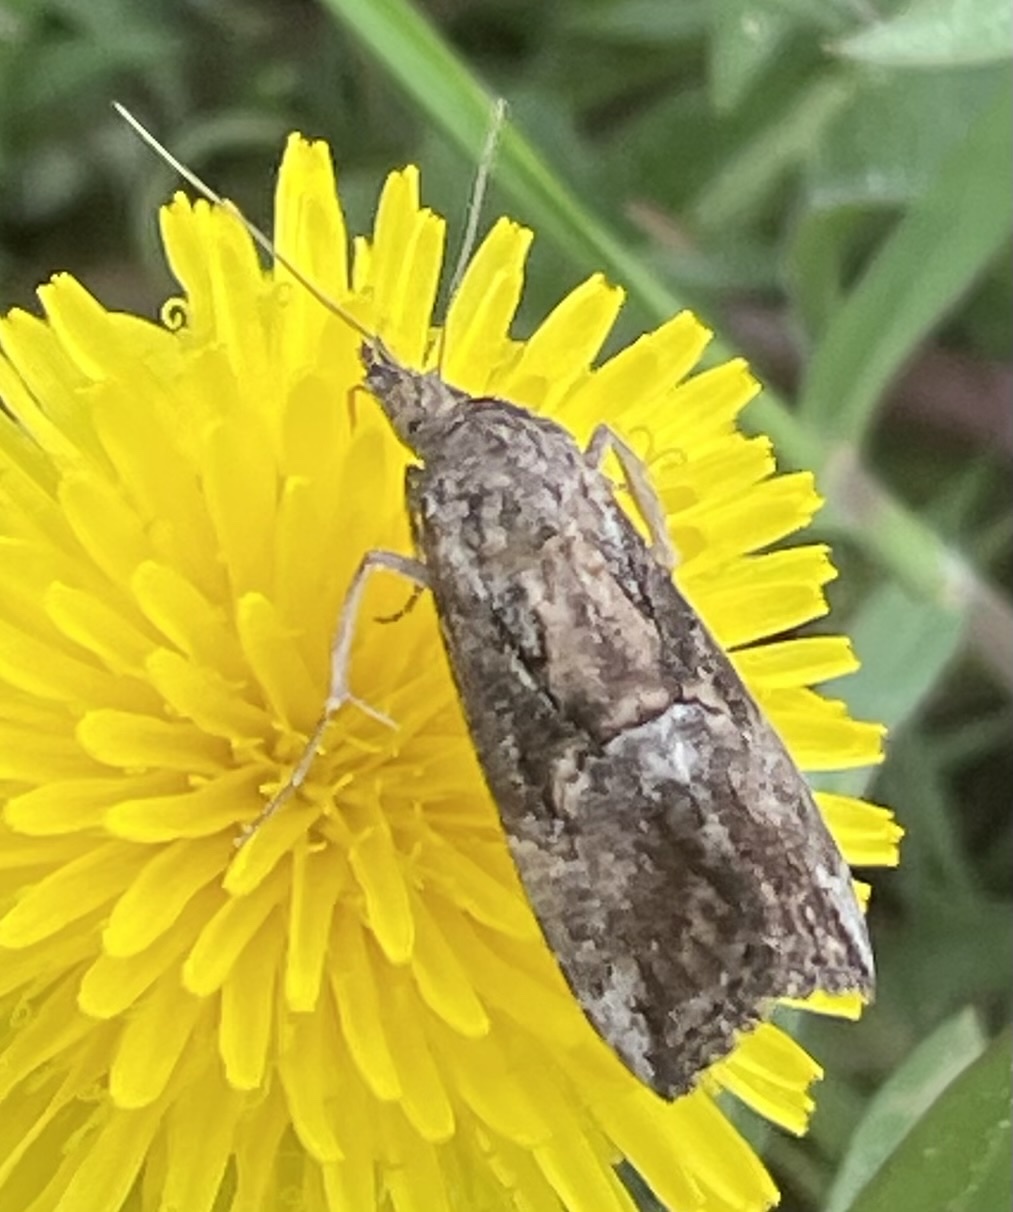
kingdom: Animalia
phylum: Arthropoda
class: Insecta
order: Lepidoptera
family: Erebidae
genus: Hypena
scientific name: Hypena scabra
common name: Green cloverworm
